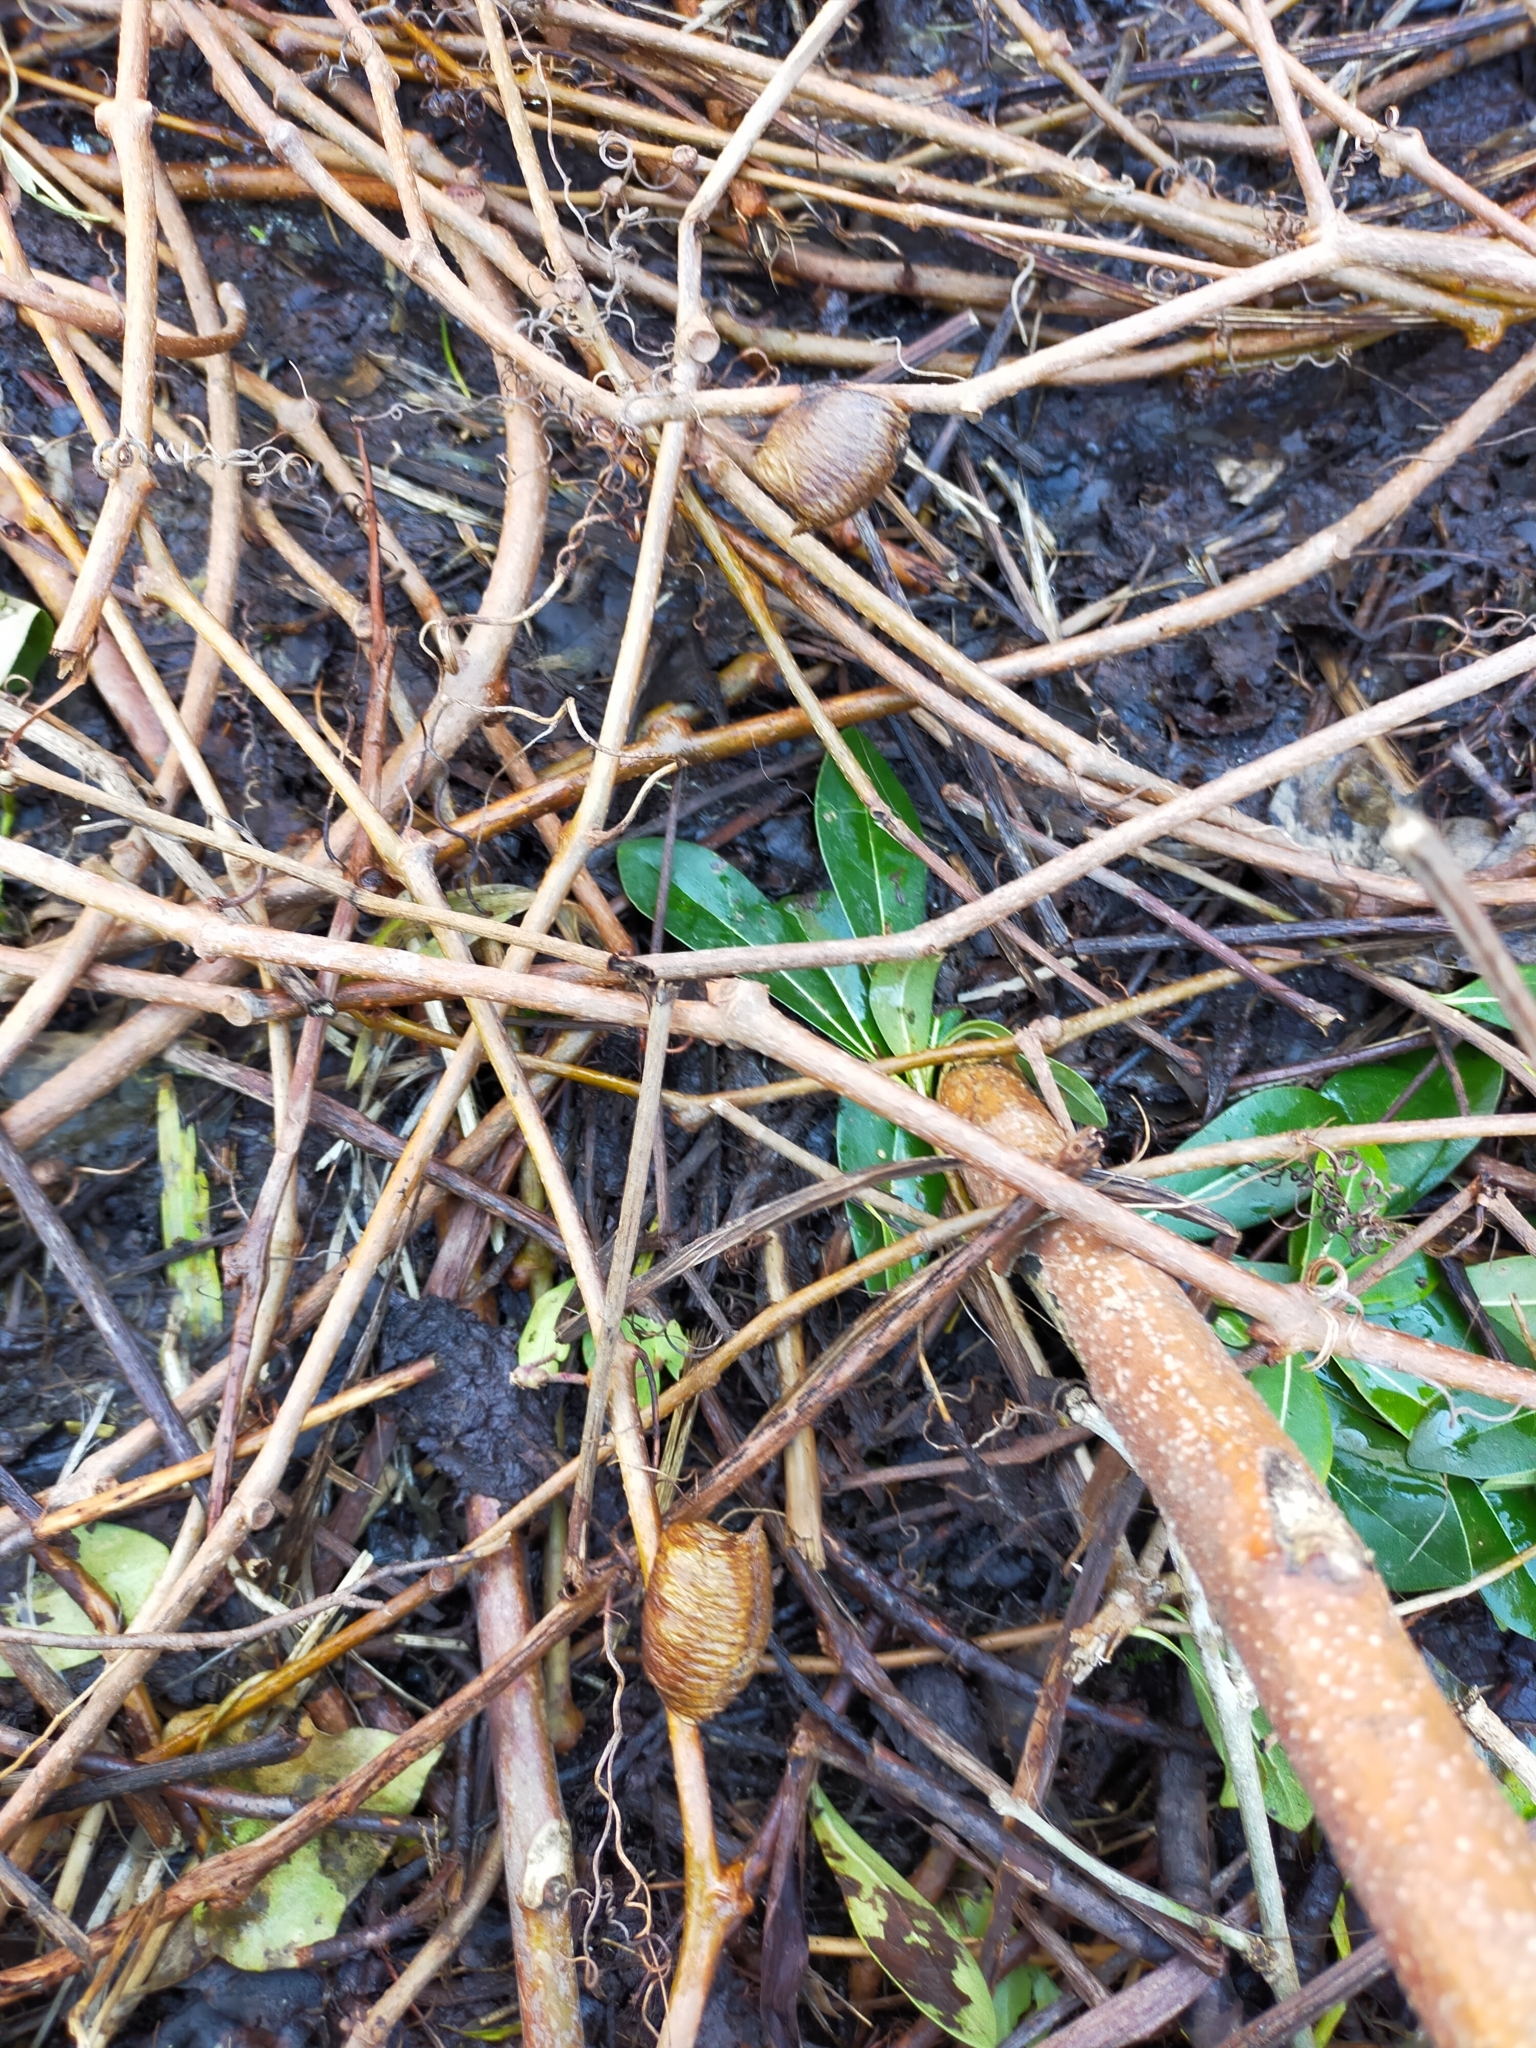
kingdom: Animalia
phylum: Arthropoda
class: Insecta
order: Mantodea
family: Mantidae
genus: Hierodula
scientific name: Hierodula transcaucasica
